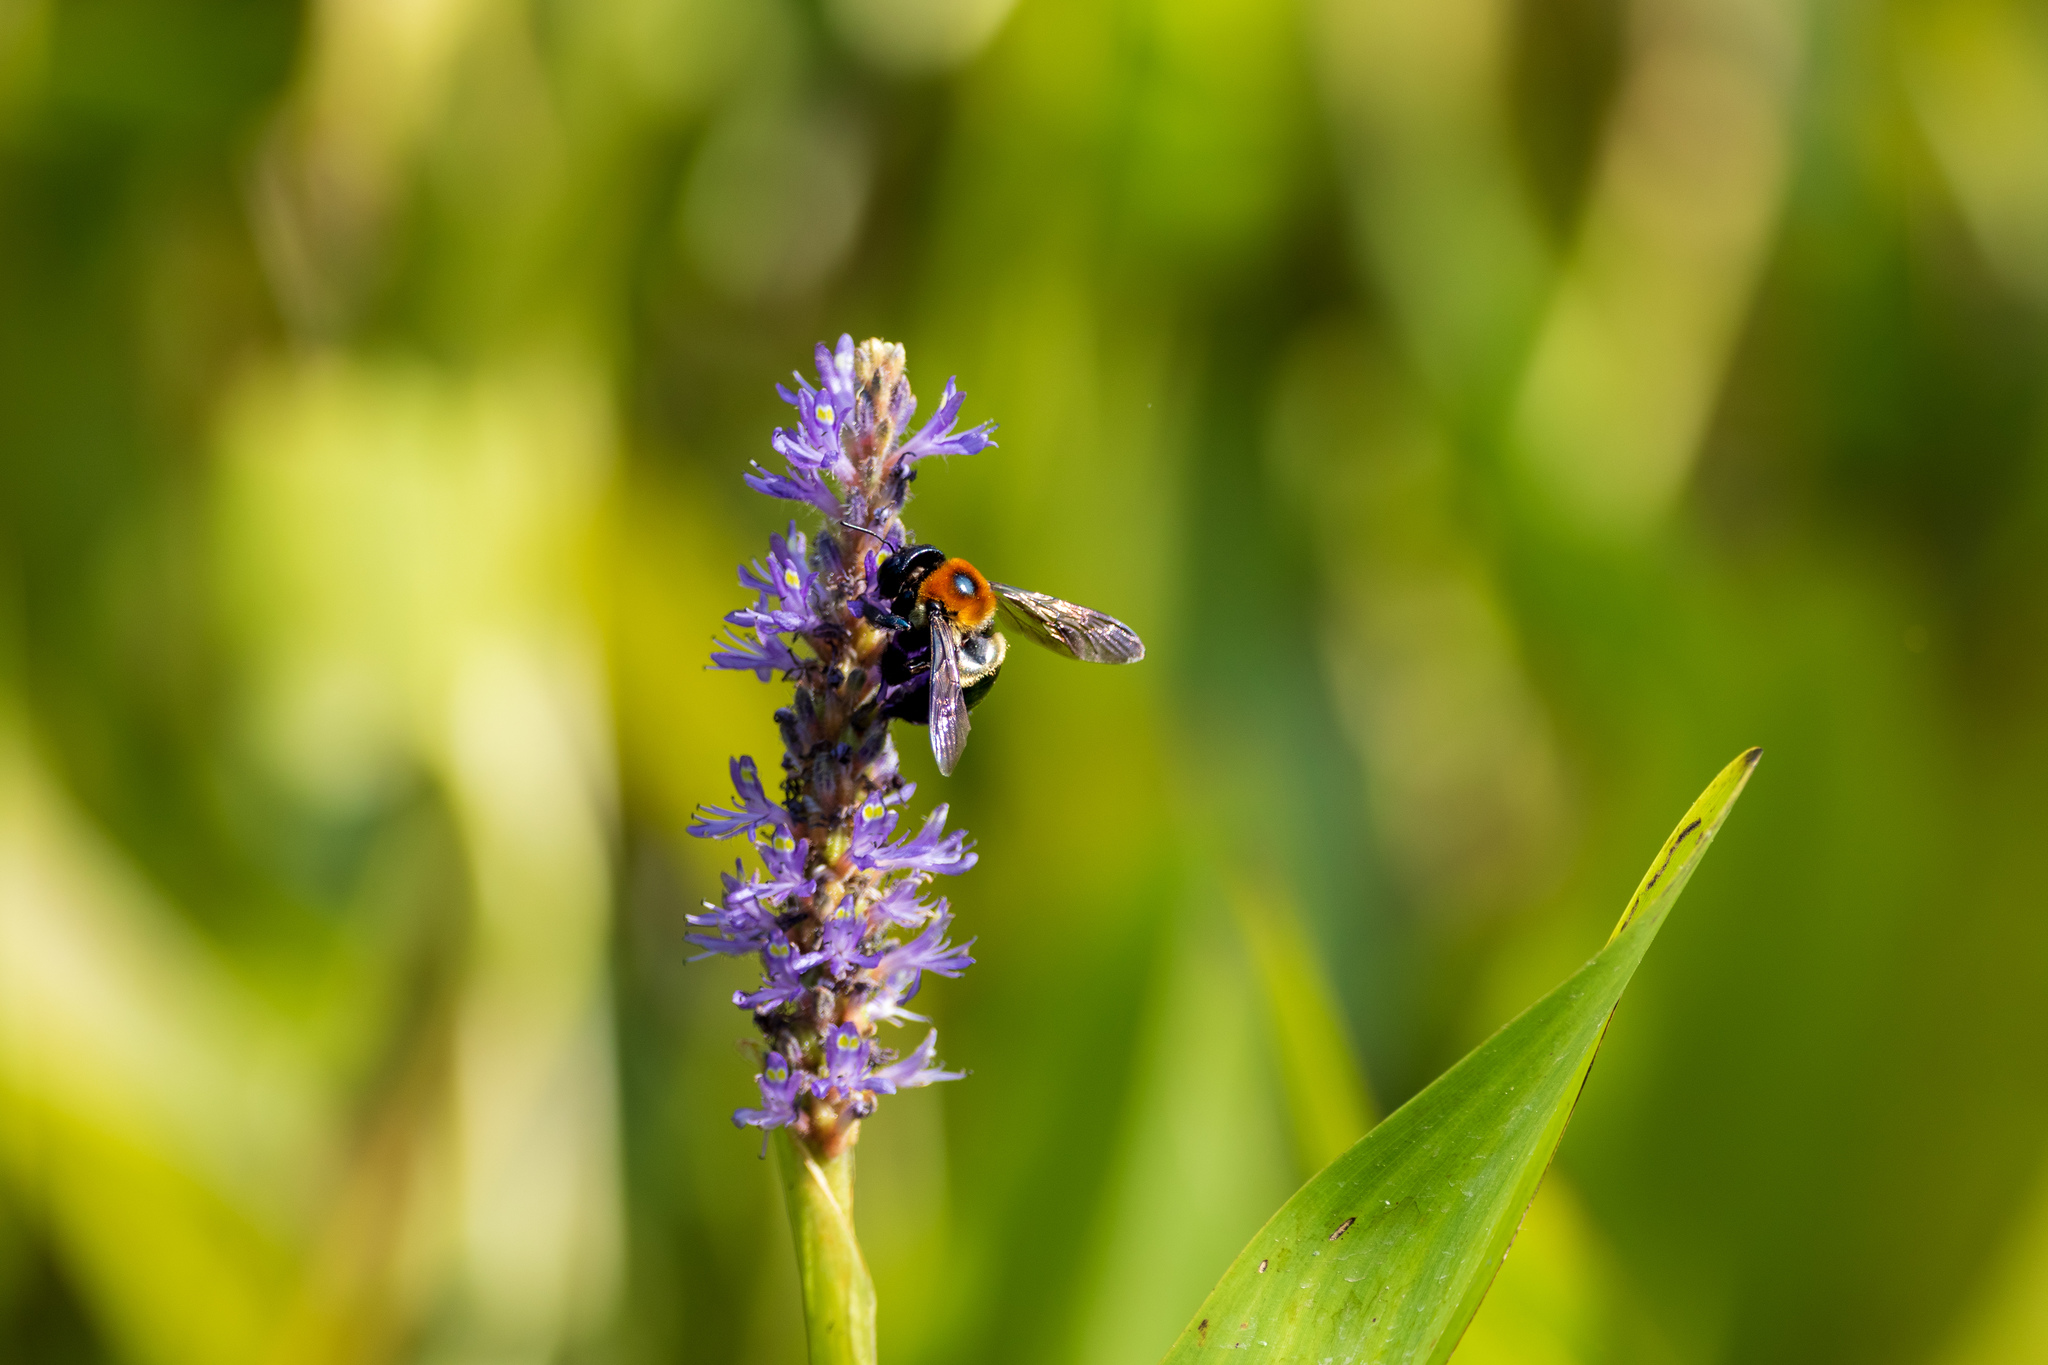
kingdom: Animalia
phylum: Arthropoda
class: Insecta
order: Hymenoptera
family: Apidae
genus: Xylocopa
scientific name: Xylocopa virginica
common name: Carpenter bee
